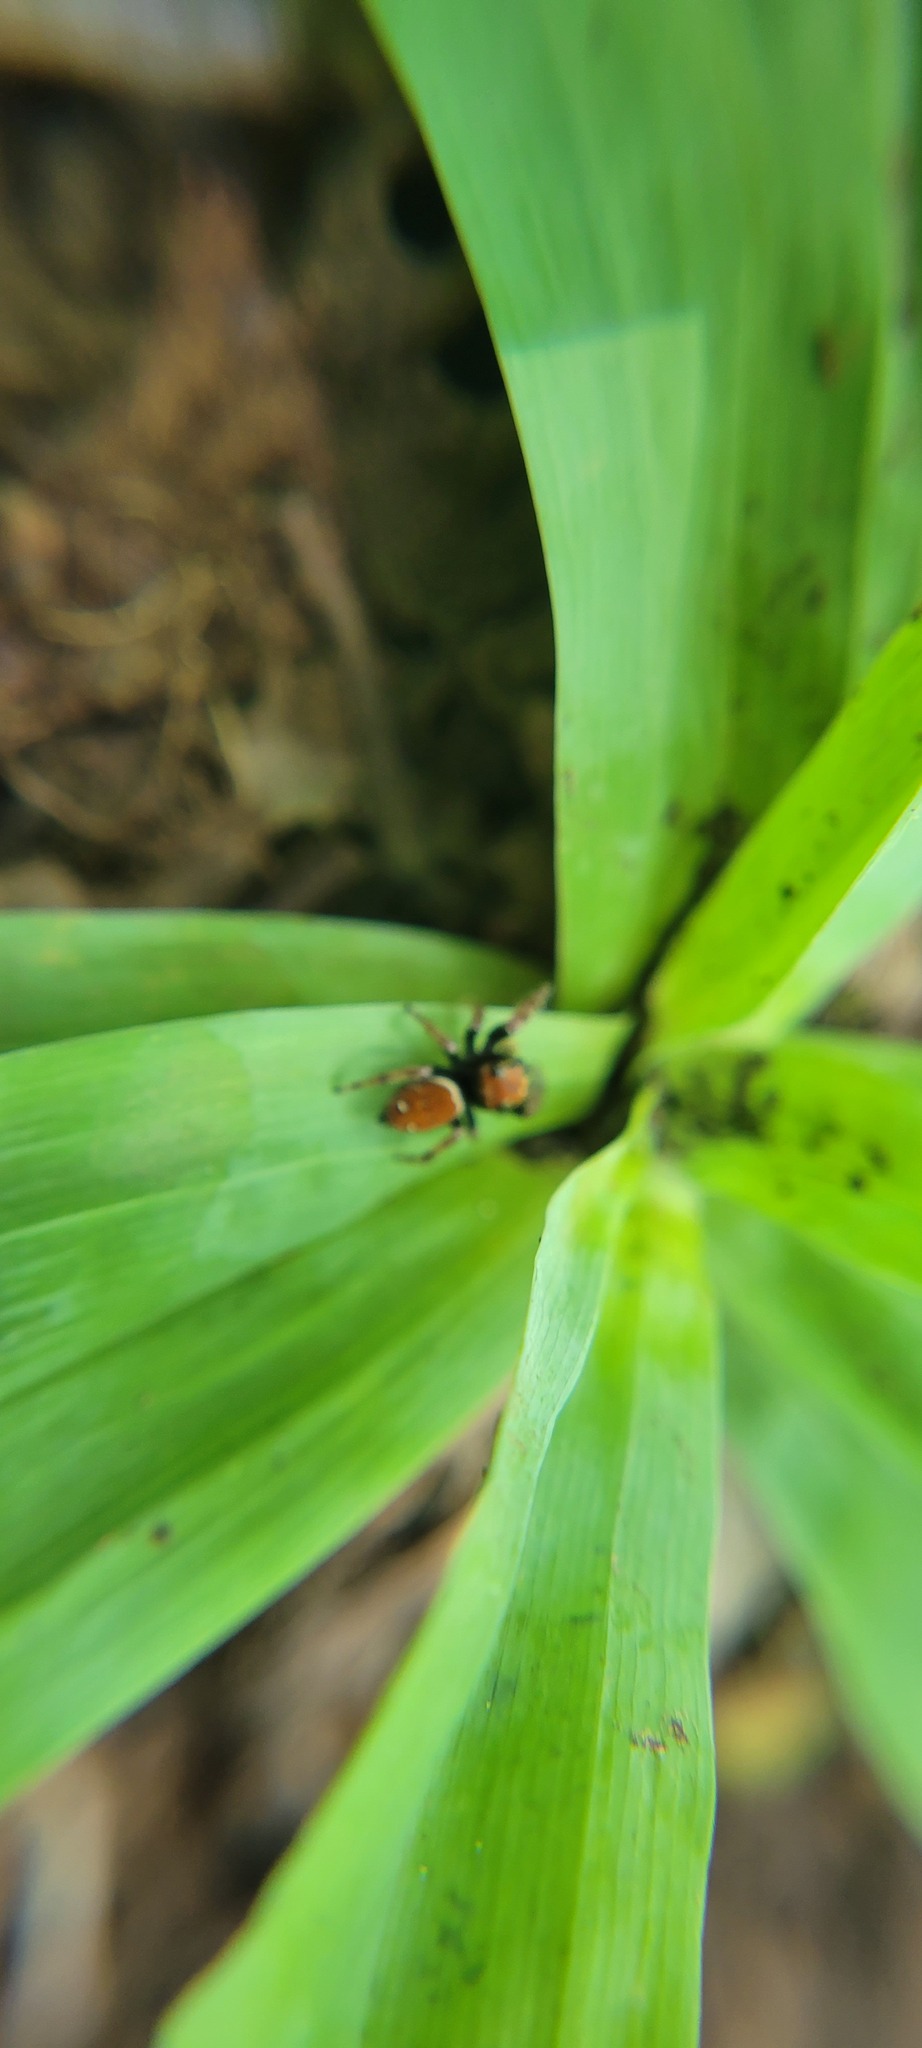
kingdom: Animalia
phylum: Arthropoda
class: Arachnida
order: Araneae
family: Salticidae
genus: Phidippus
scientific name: Phidippus whitmani
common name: Whitman's jumping spider
